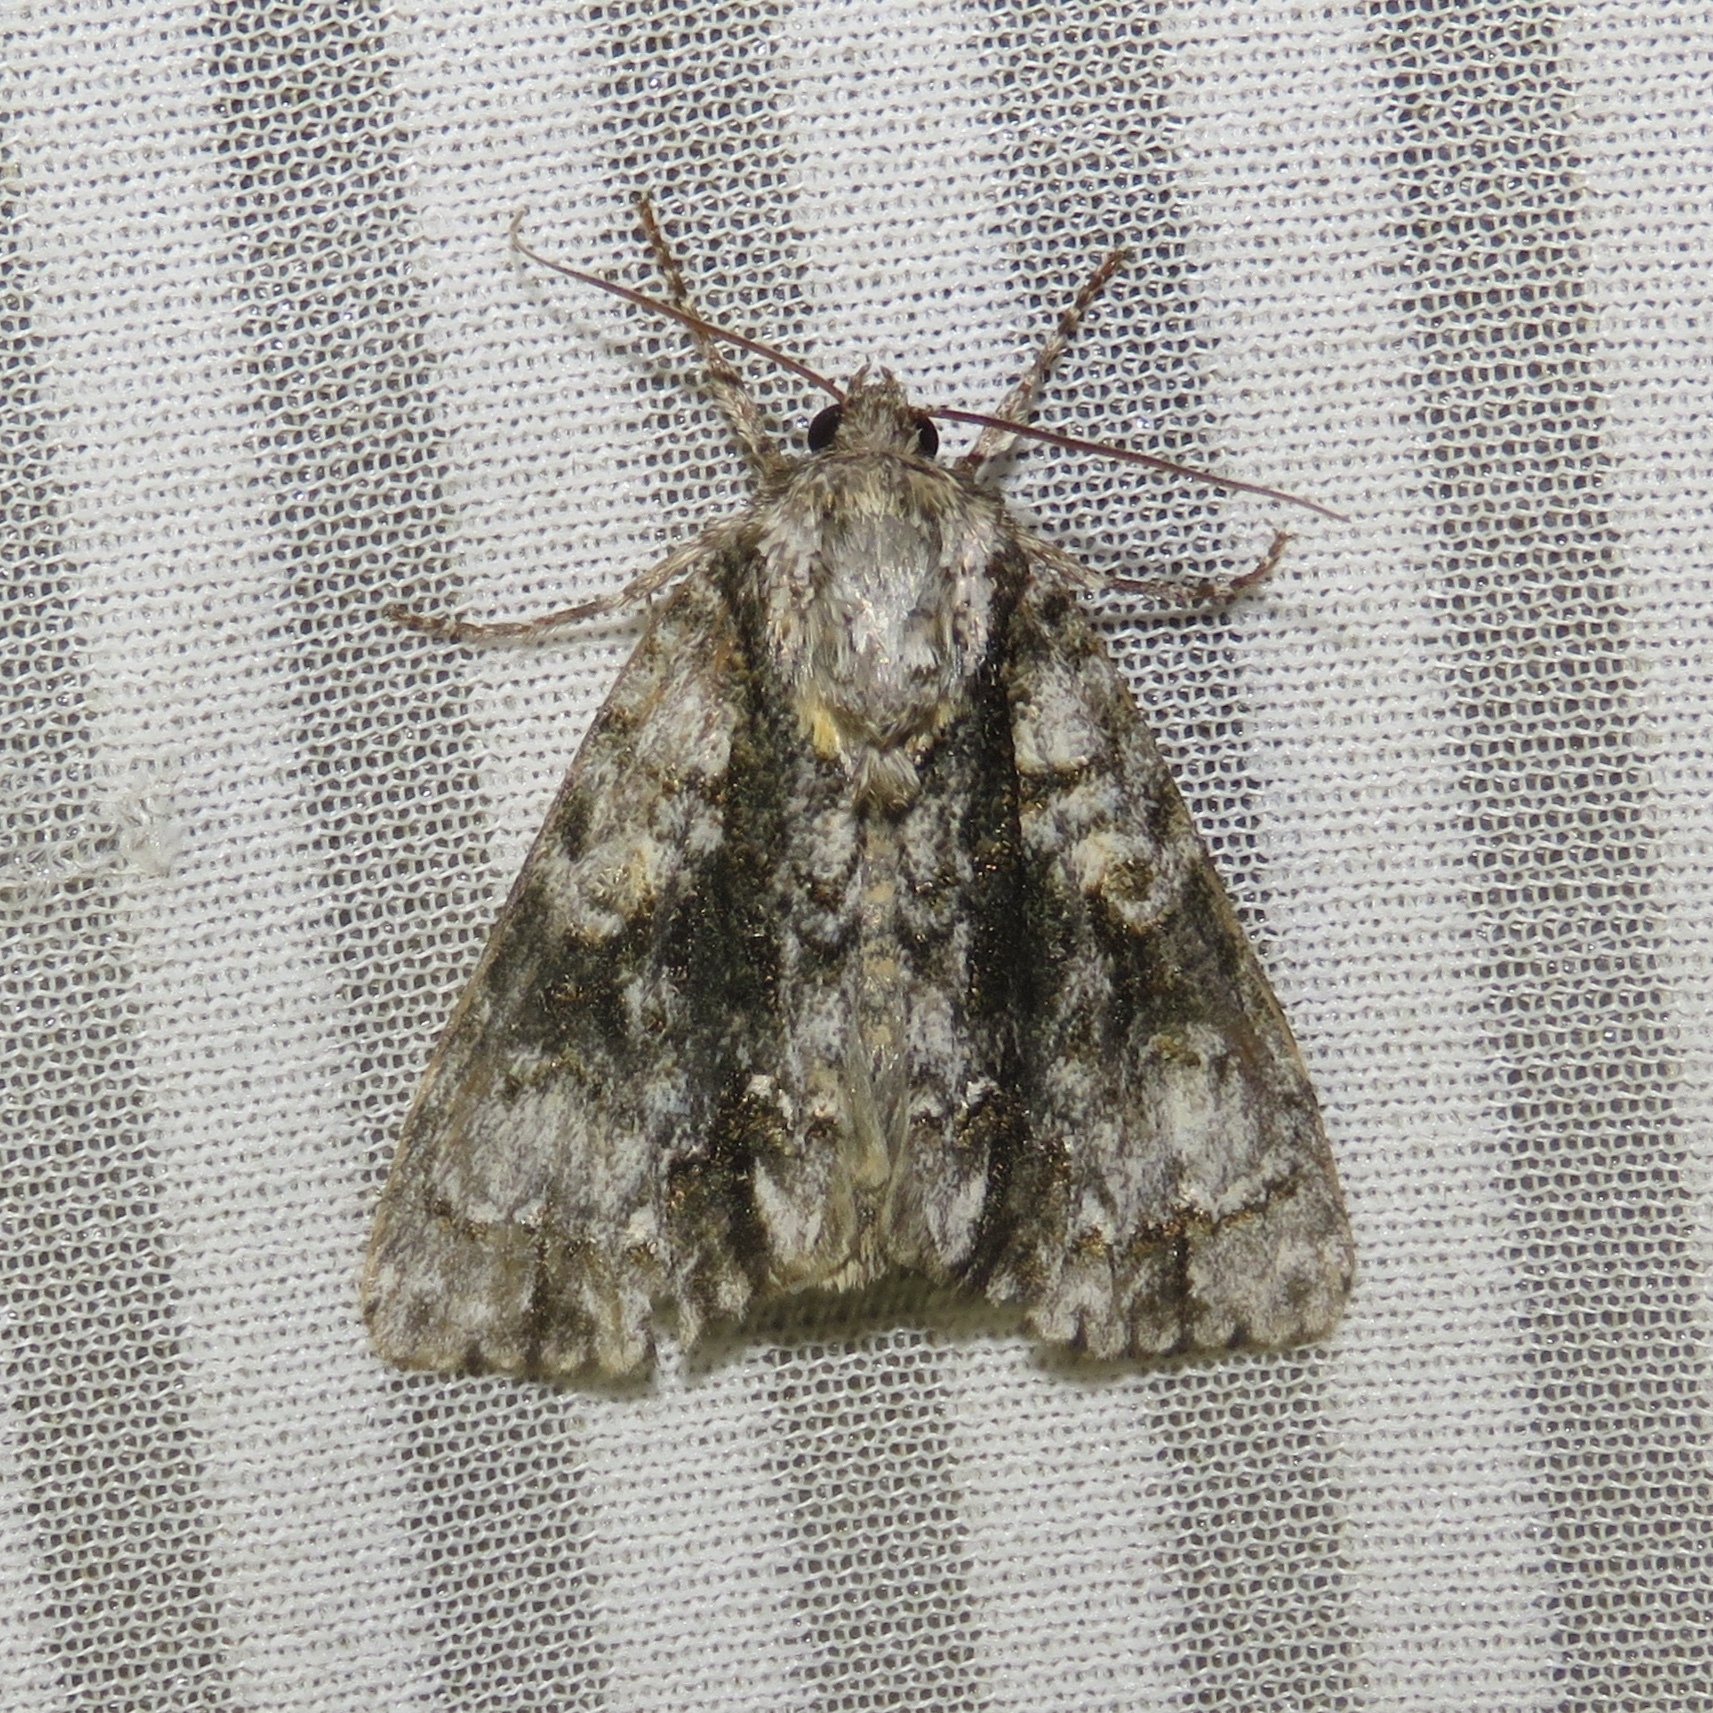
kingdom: Animalia
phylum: Arthropoda
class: Insecta
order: Lepidoptera
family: Noctuidae
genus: Acronicta
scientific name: Acronicta superans
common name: Splendid dagger
